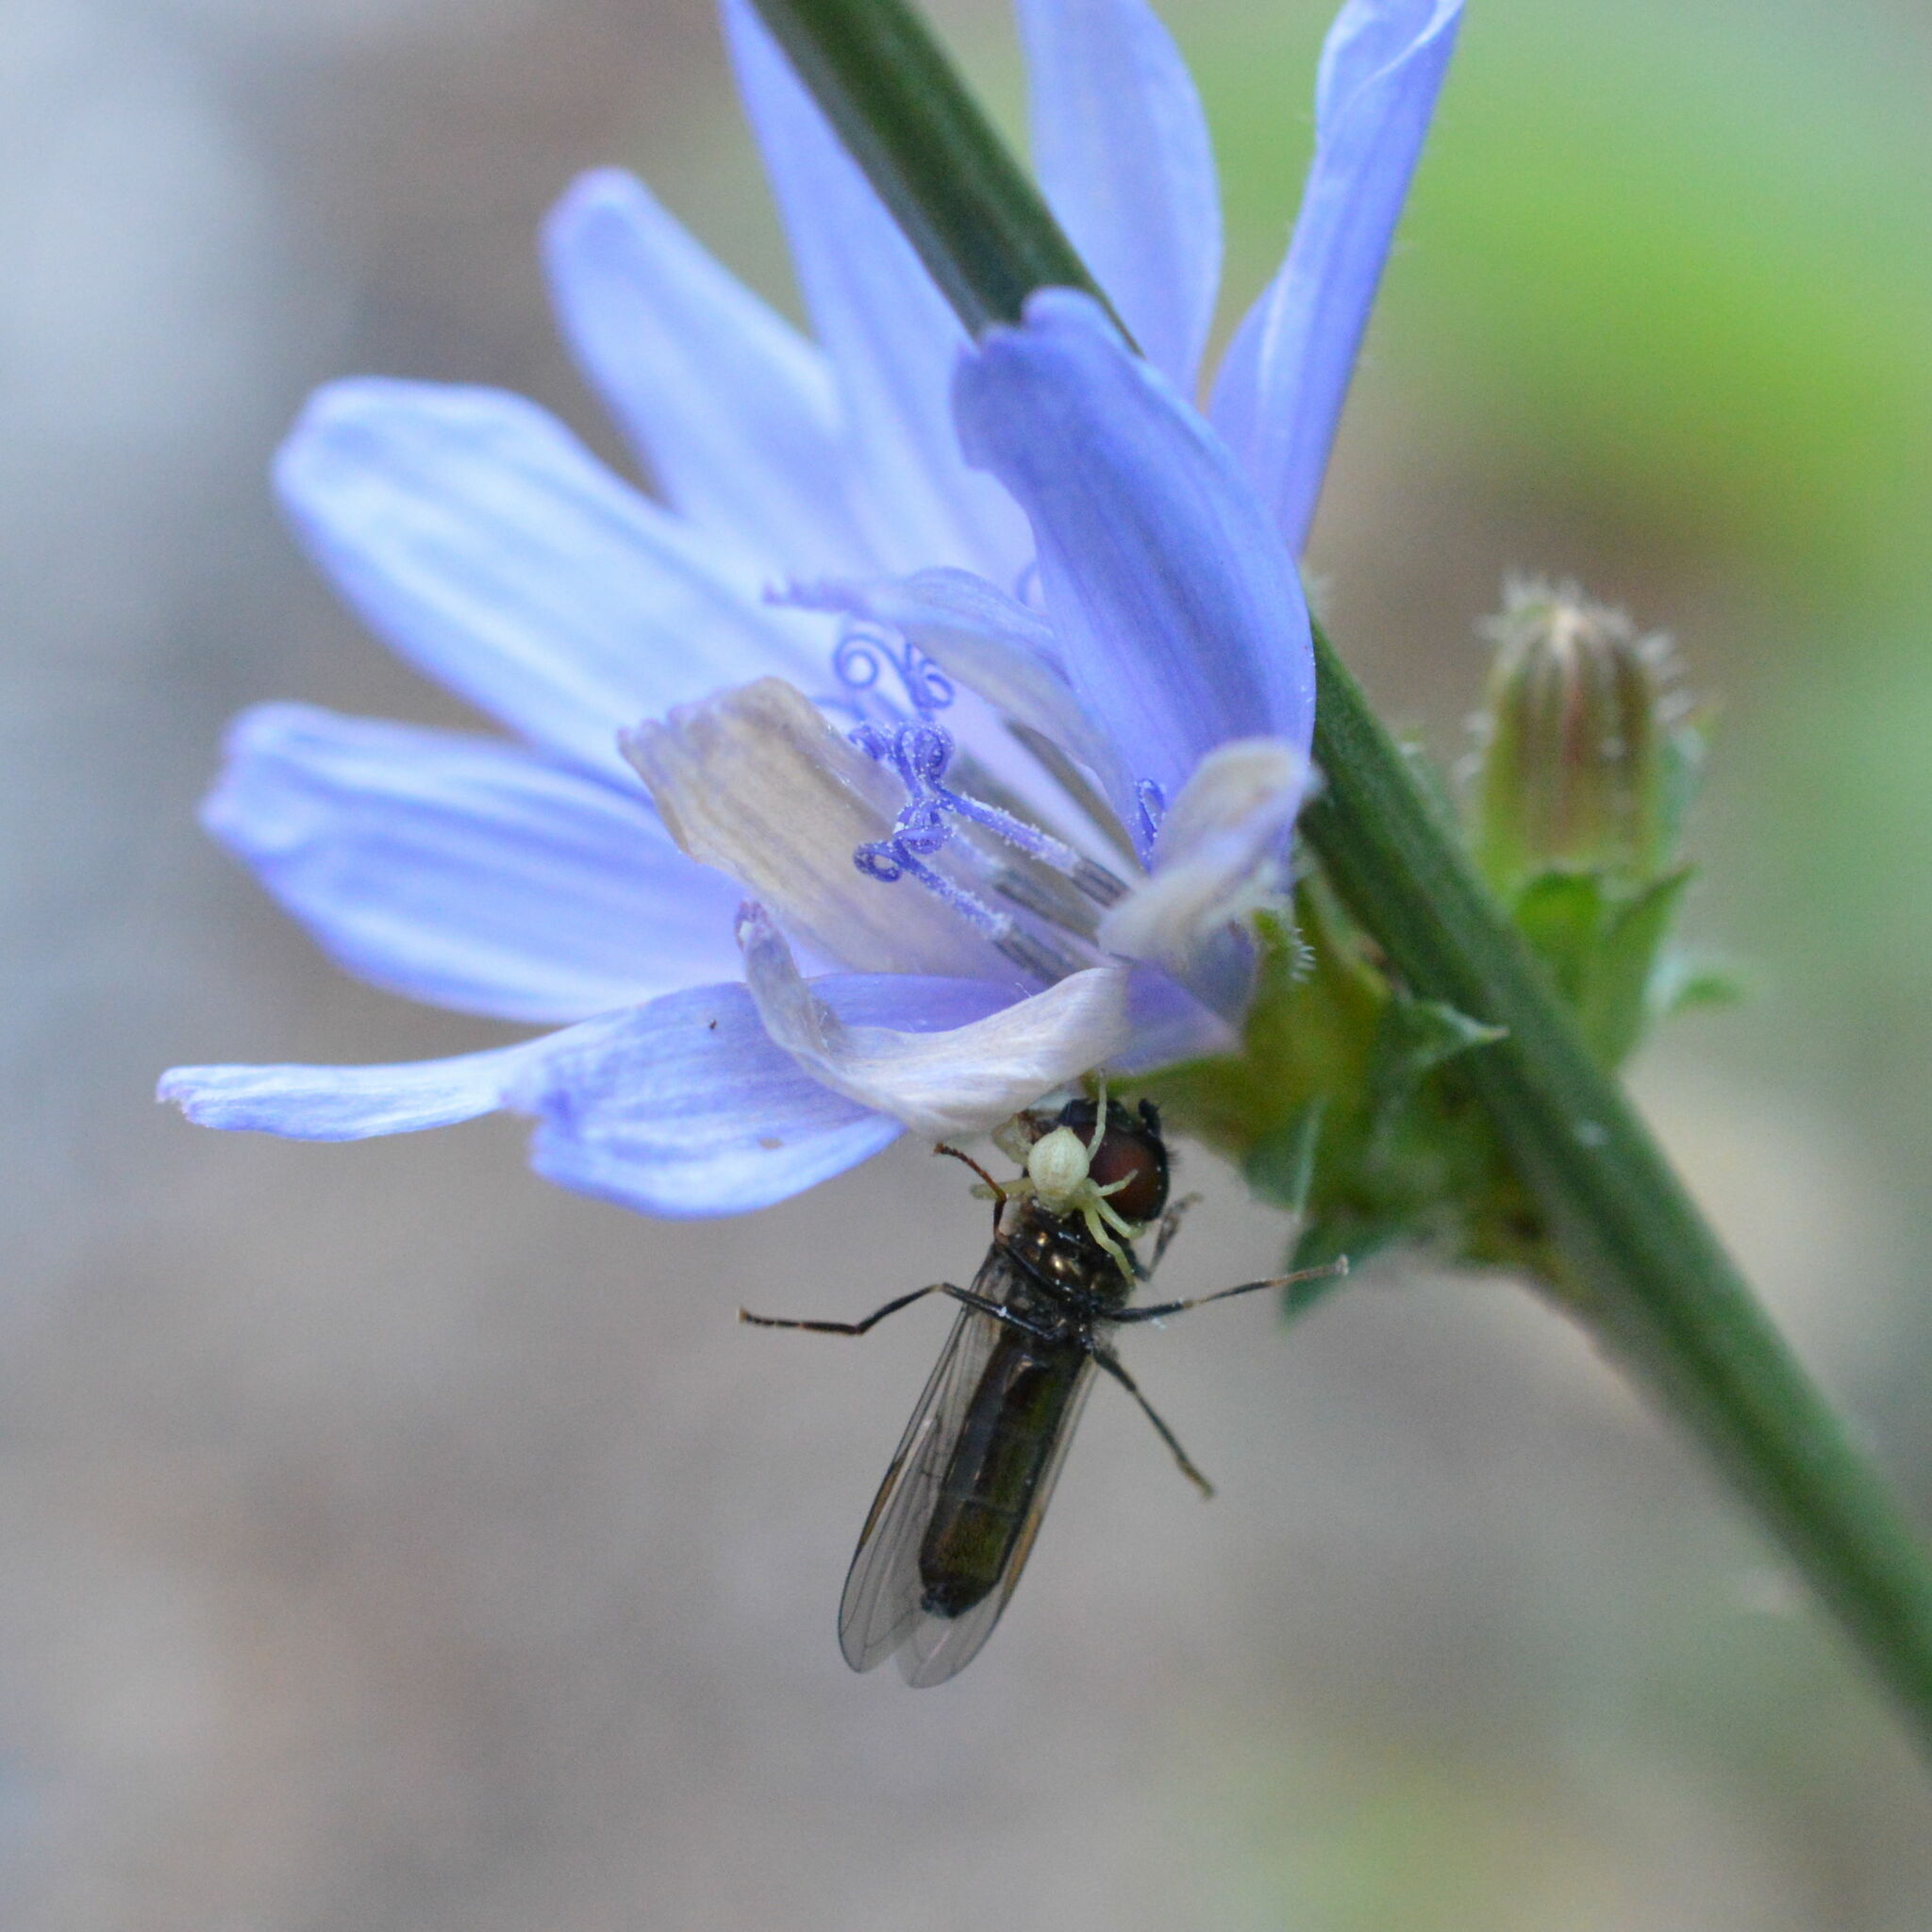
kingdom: Animalia
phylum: Arthropoda
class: Arachnida
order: Araneae
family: Thomisidae
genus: Misumena
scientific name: Misumena vatia
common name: Goldenrod crab spider
